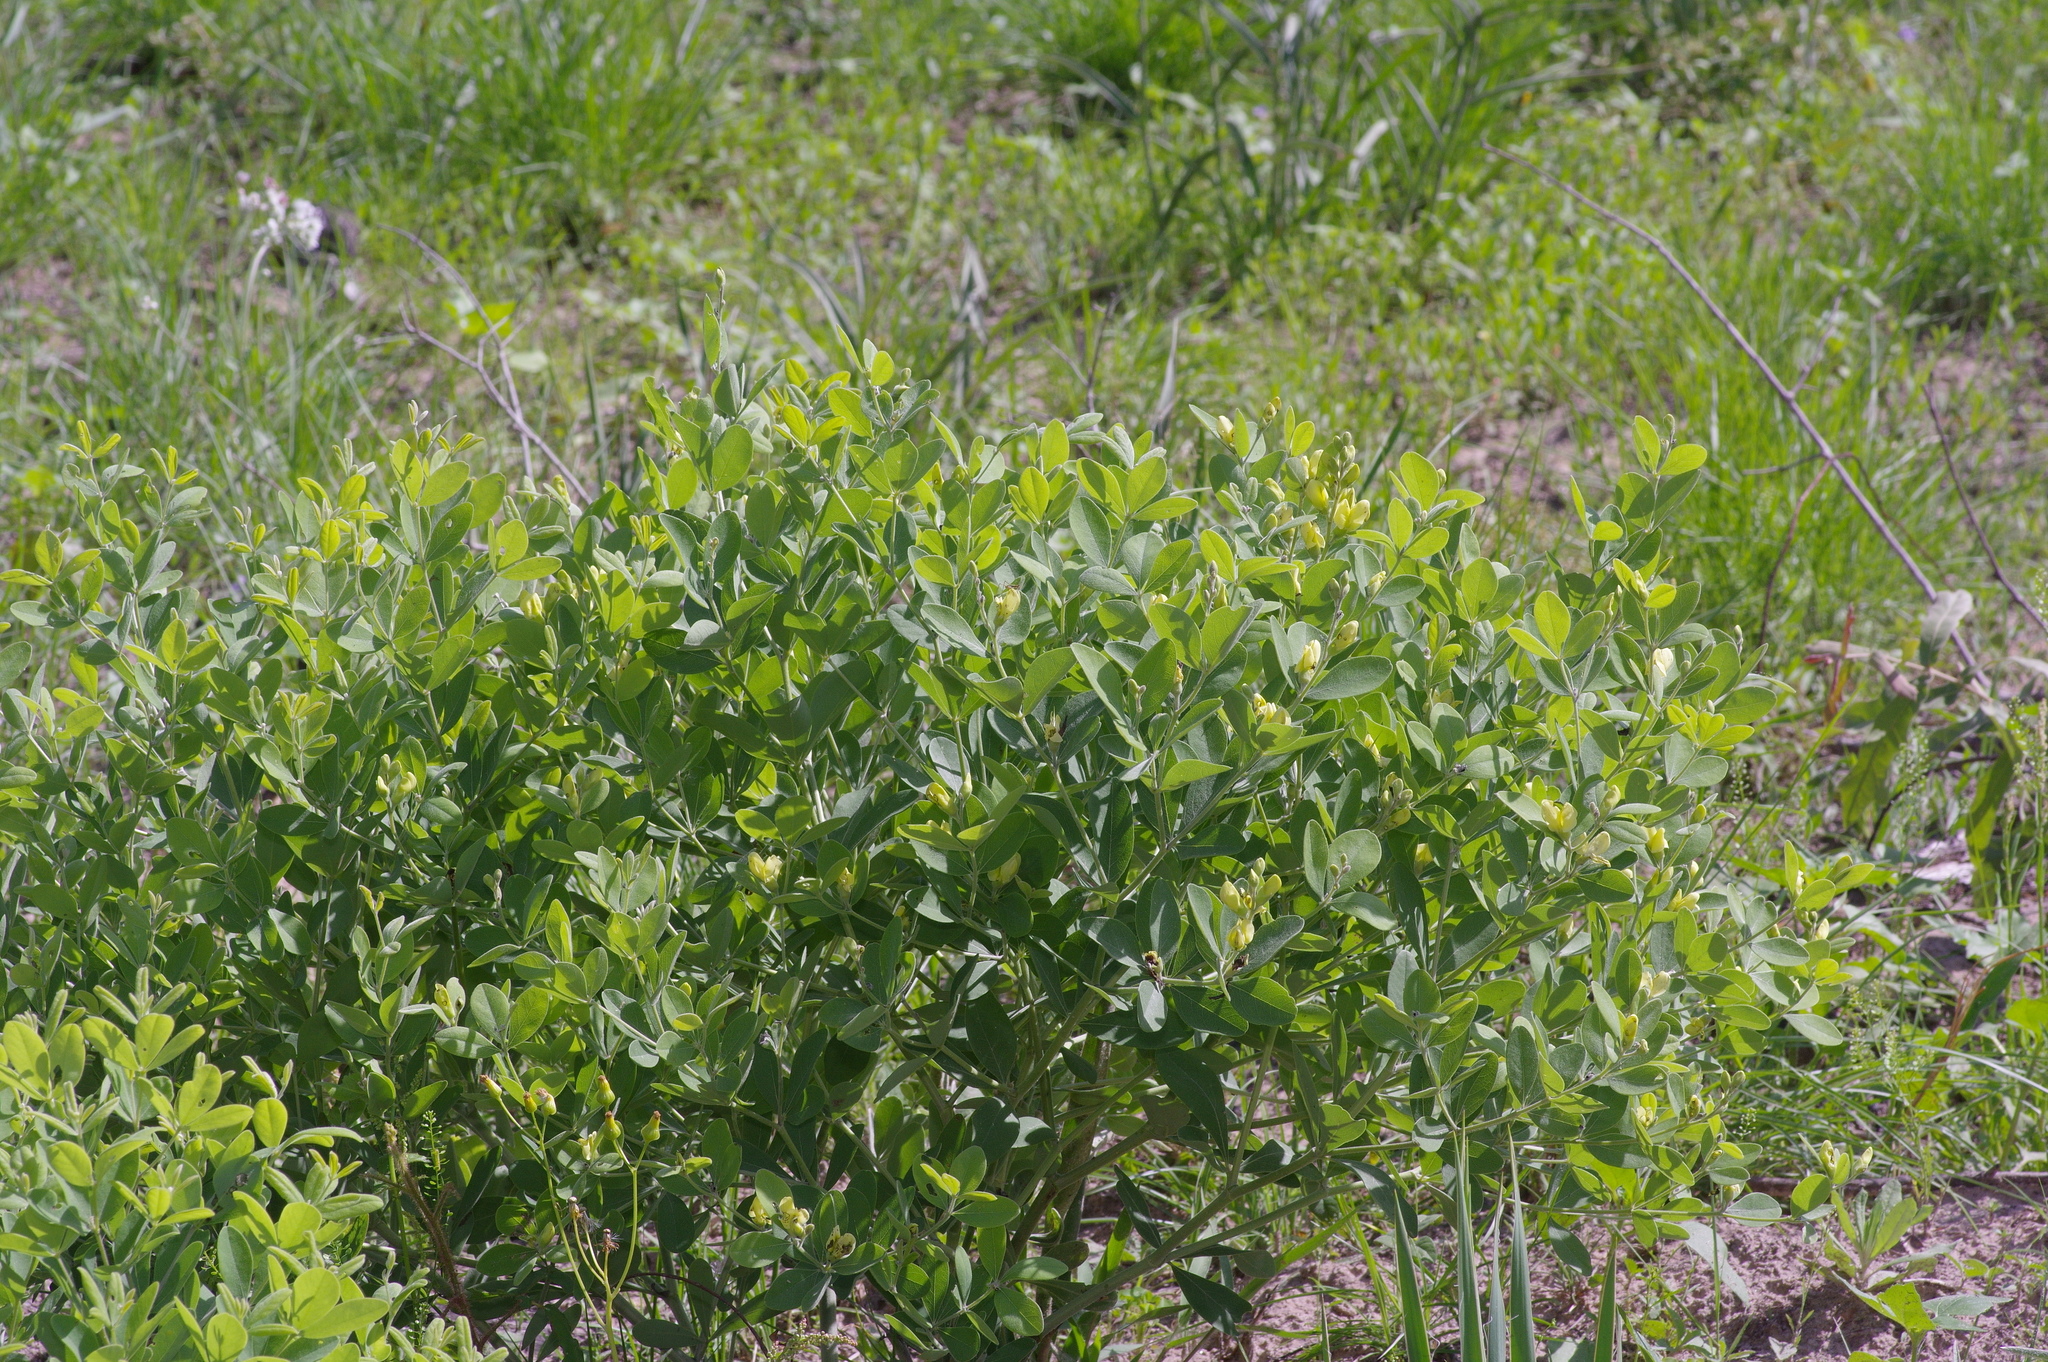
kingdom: Plantae
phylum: Tracheophyta
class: Magnoliopsida
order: Fabales
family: Fabaceae
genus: Baptisia
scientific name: Baptisia nuttalliana
